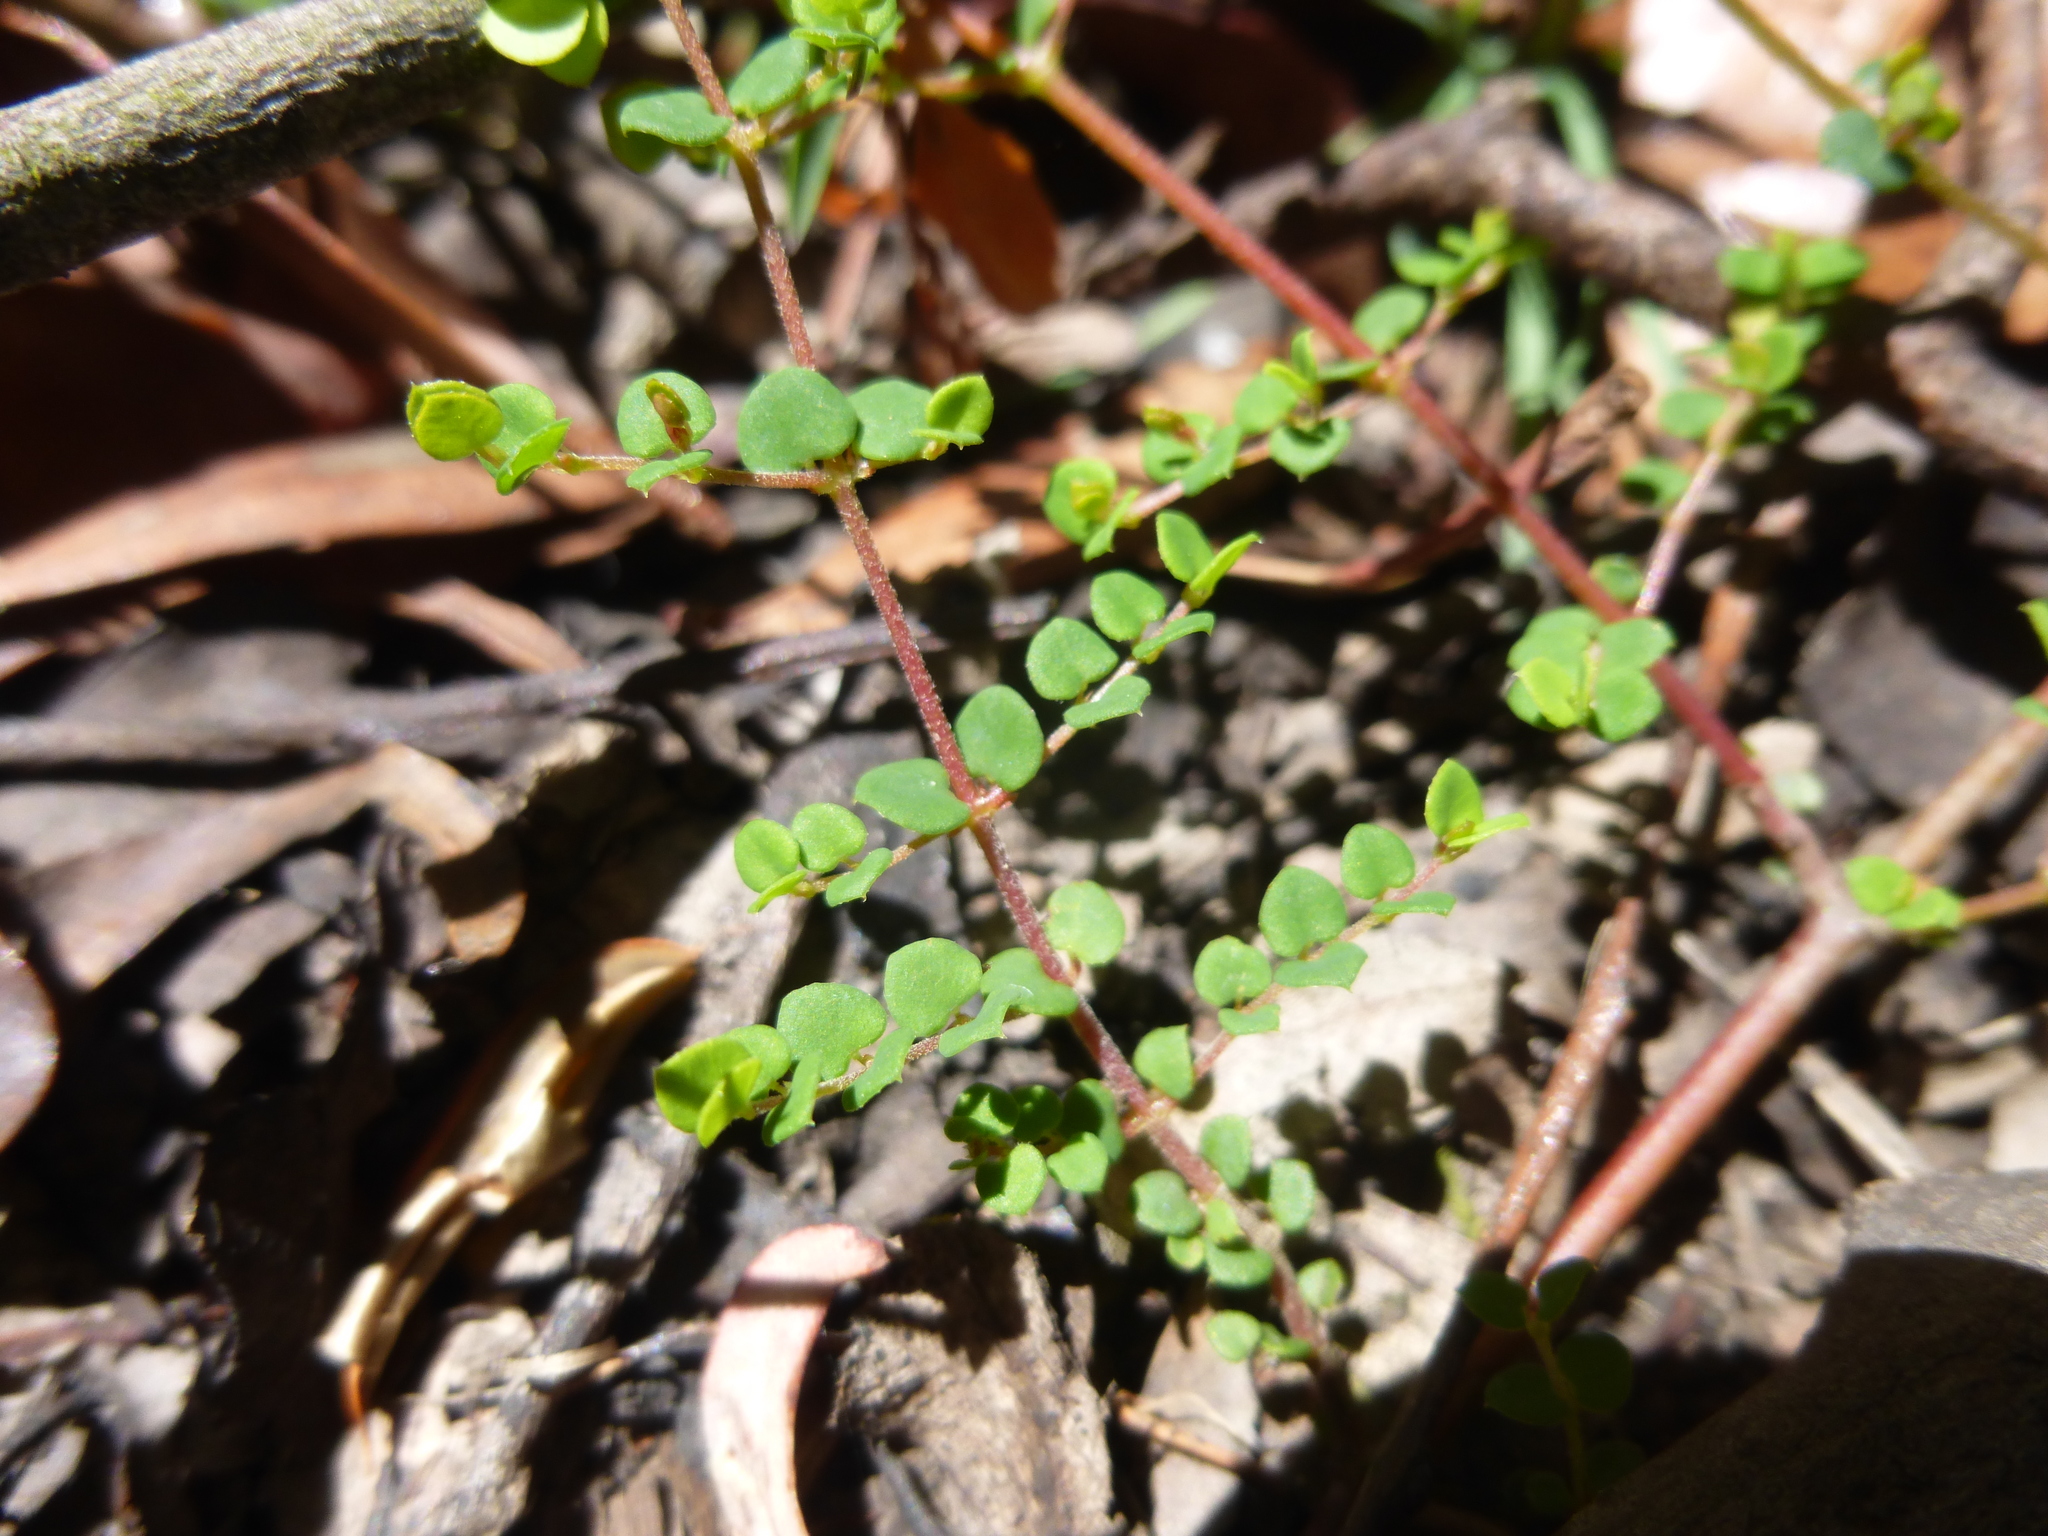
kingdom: Plantae
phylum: Tracheophyta
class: Magnoliopsida
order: Fabales
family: Fabaceae
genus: Bossiaea
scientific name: Bossiaea hendersonii
